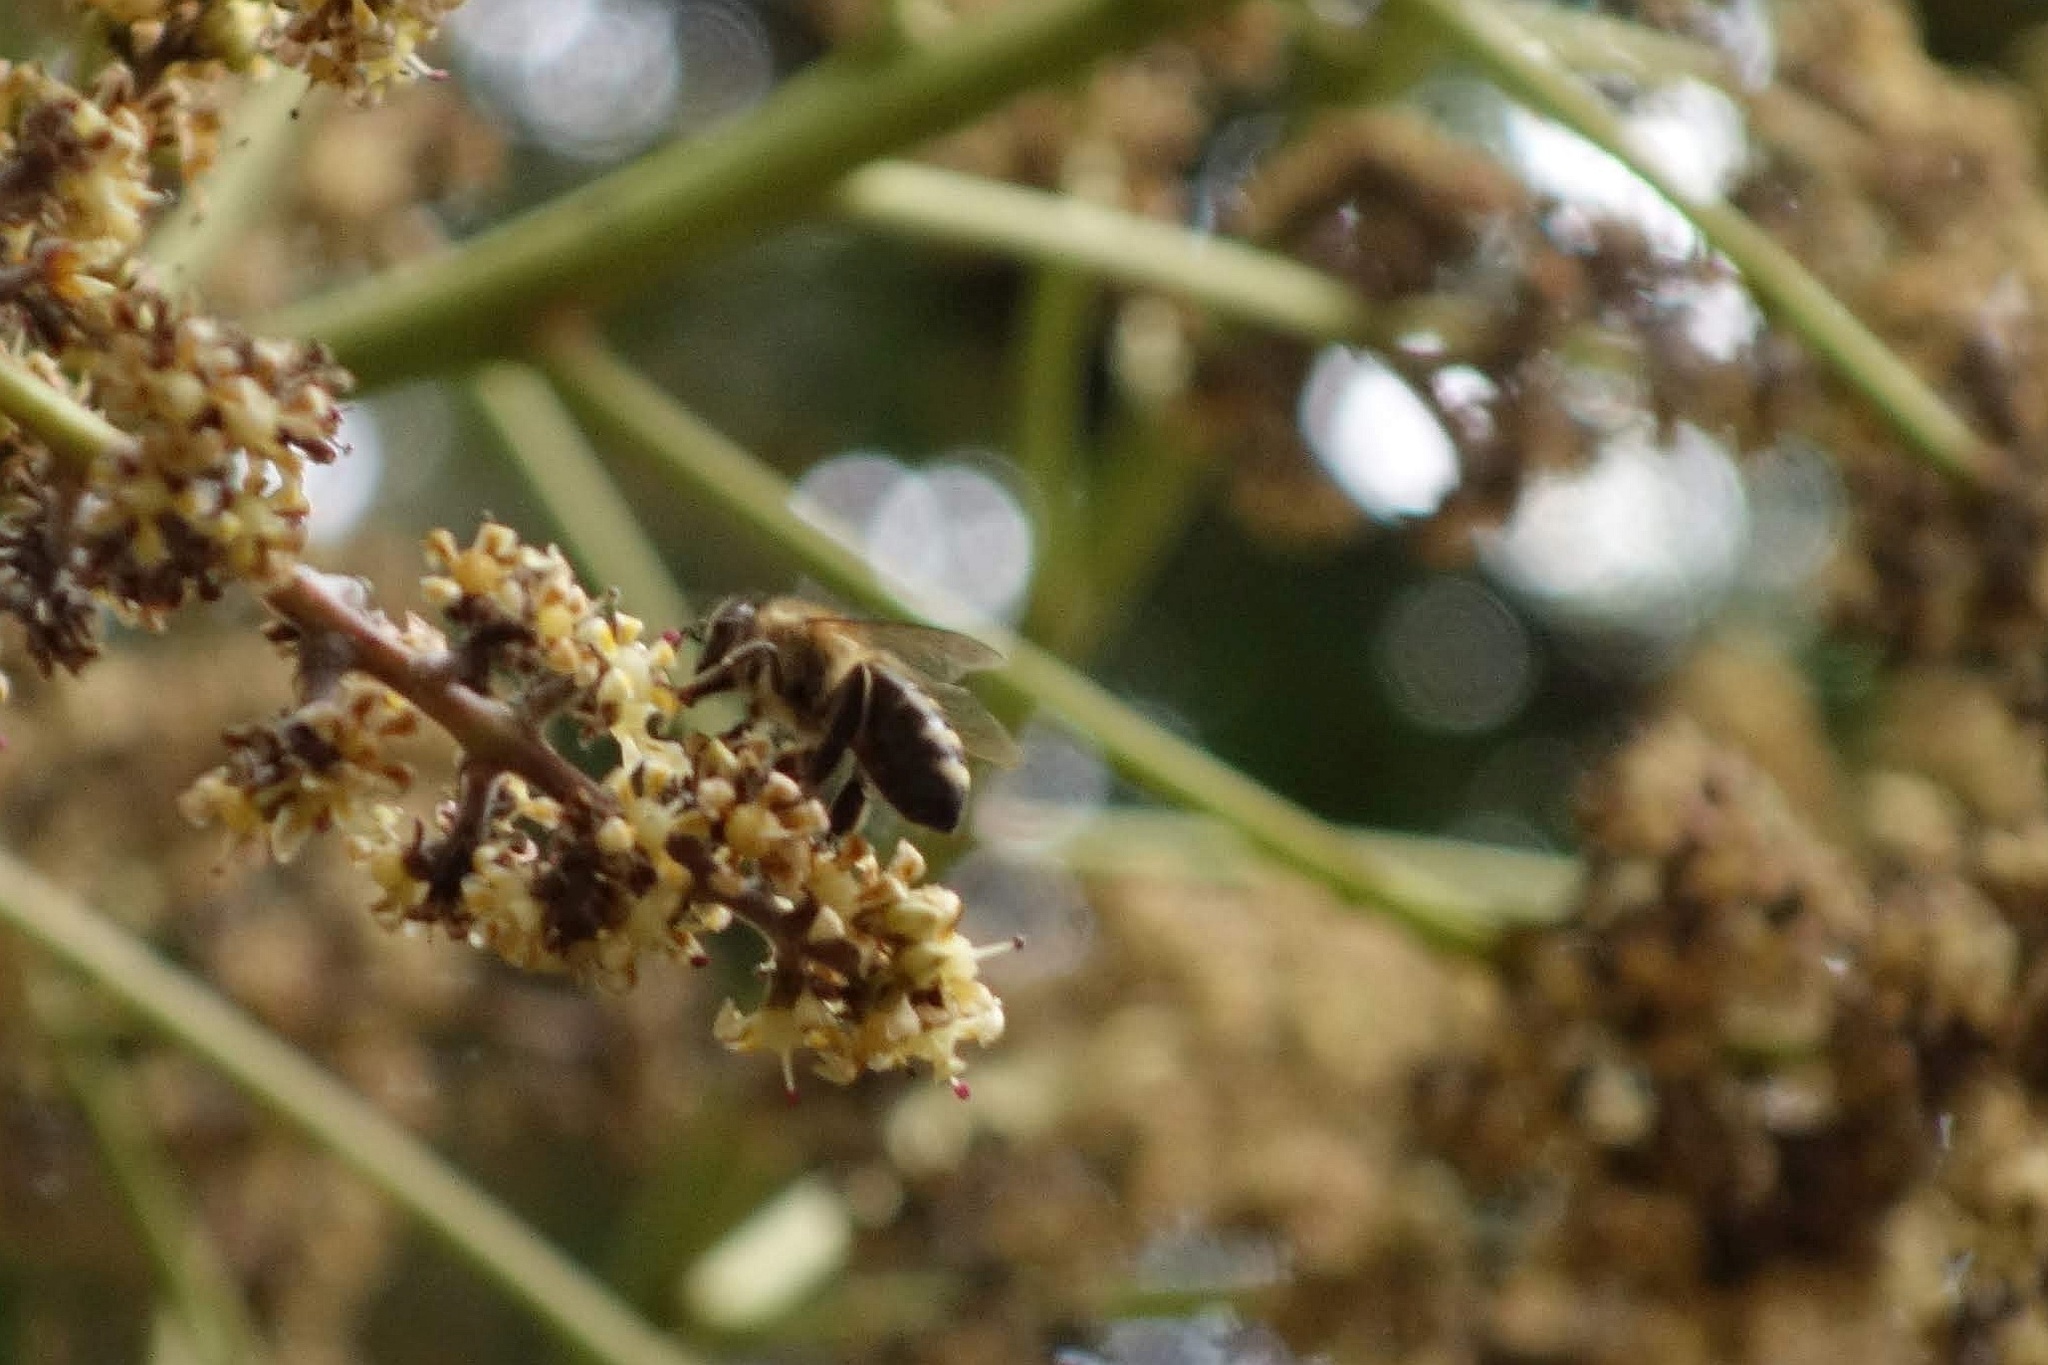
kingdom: Animalia
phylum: Arthropoda
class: Insecta
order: Hymenoptera
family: Apidae
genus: Apis
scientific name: Apis mellifera
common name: Honey bee
